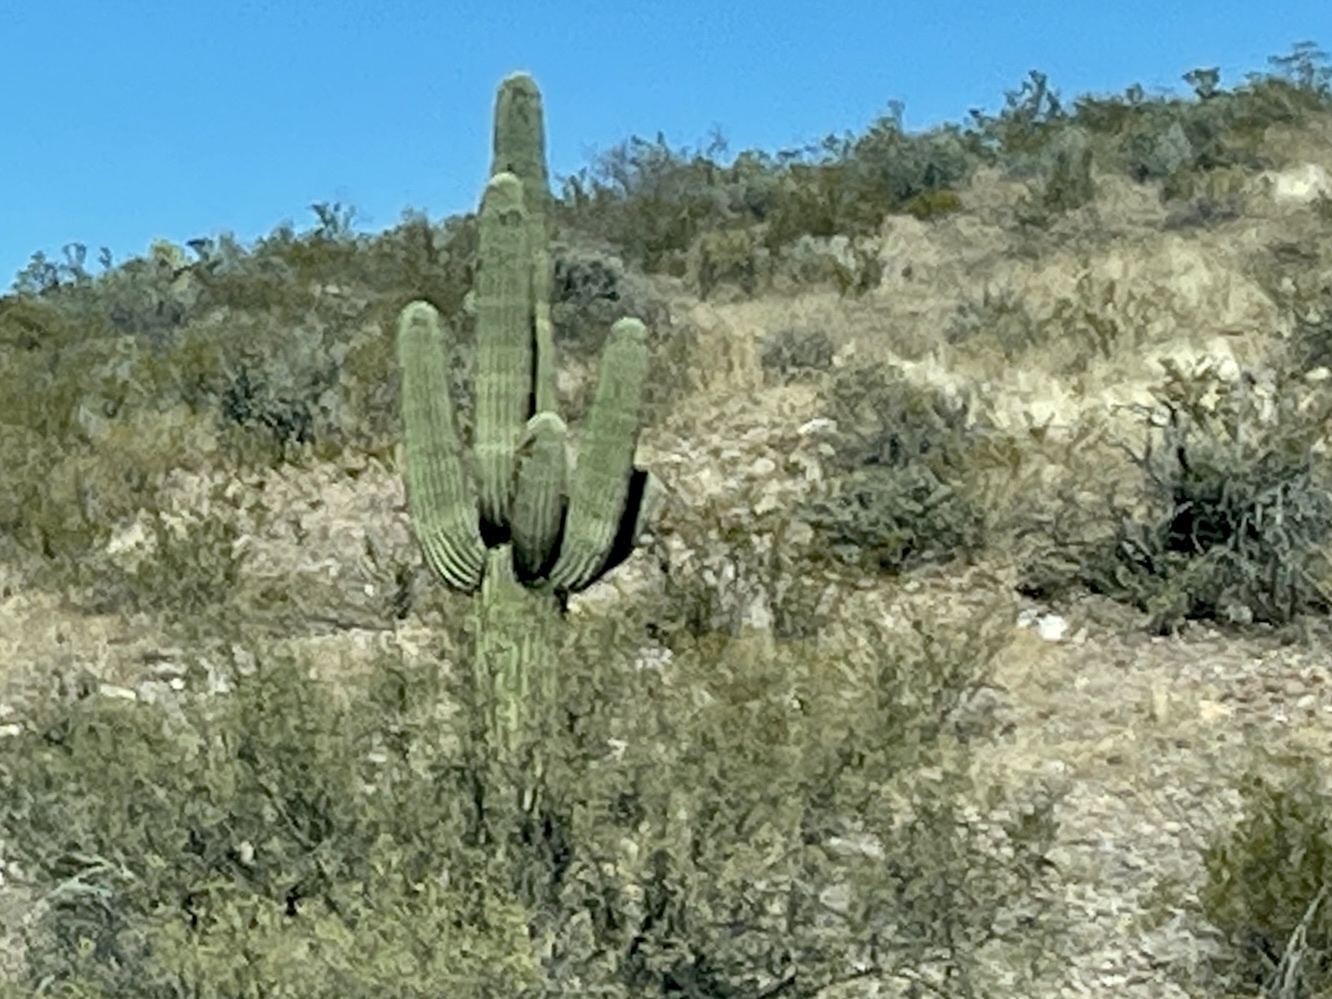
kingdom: Plantae
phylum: Tracheophyta
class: Magnoliopsida
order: Caryophyllales
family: Cactaceae
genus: Carnegiea
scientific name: Carnegiea gigantea
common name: Saguaro
